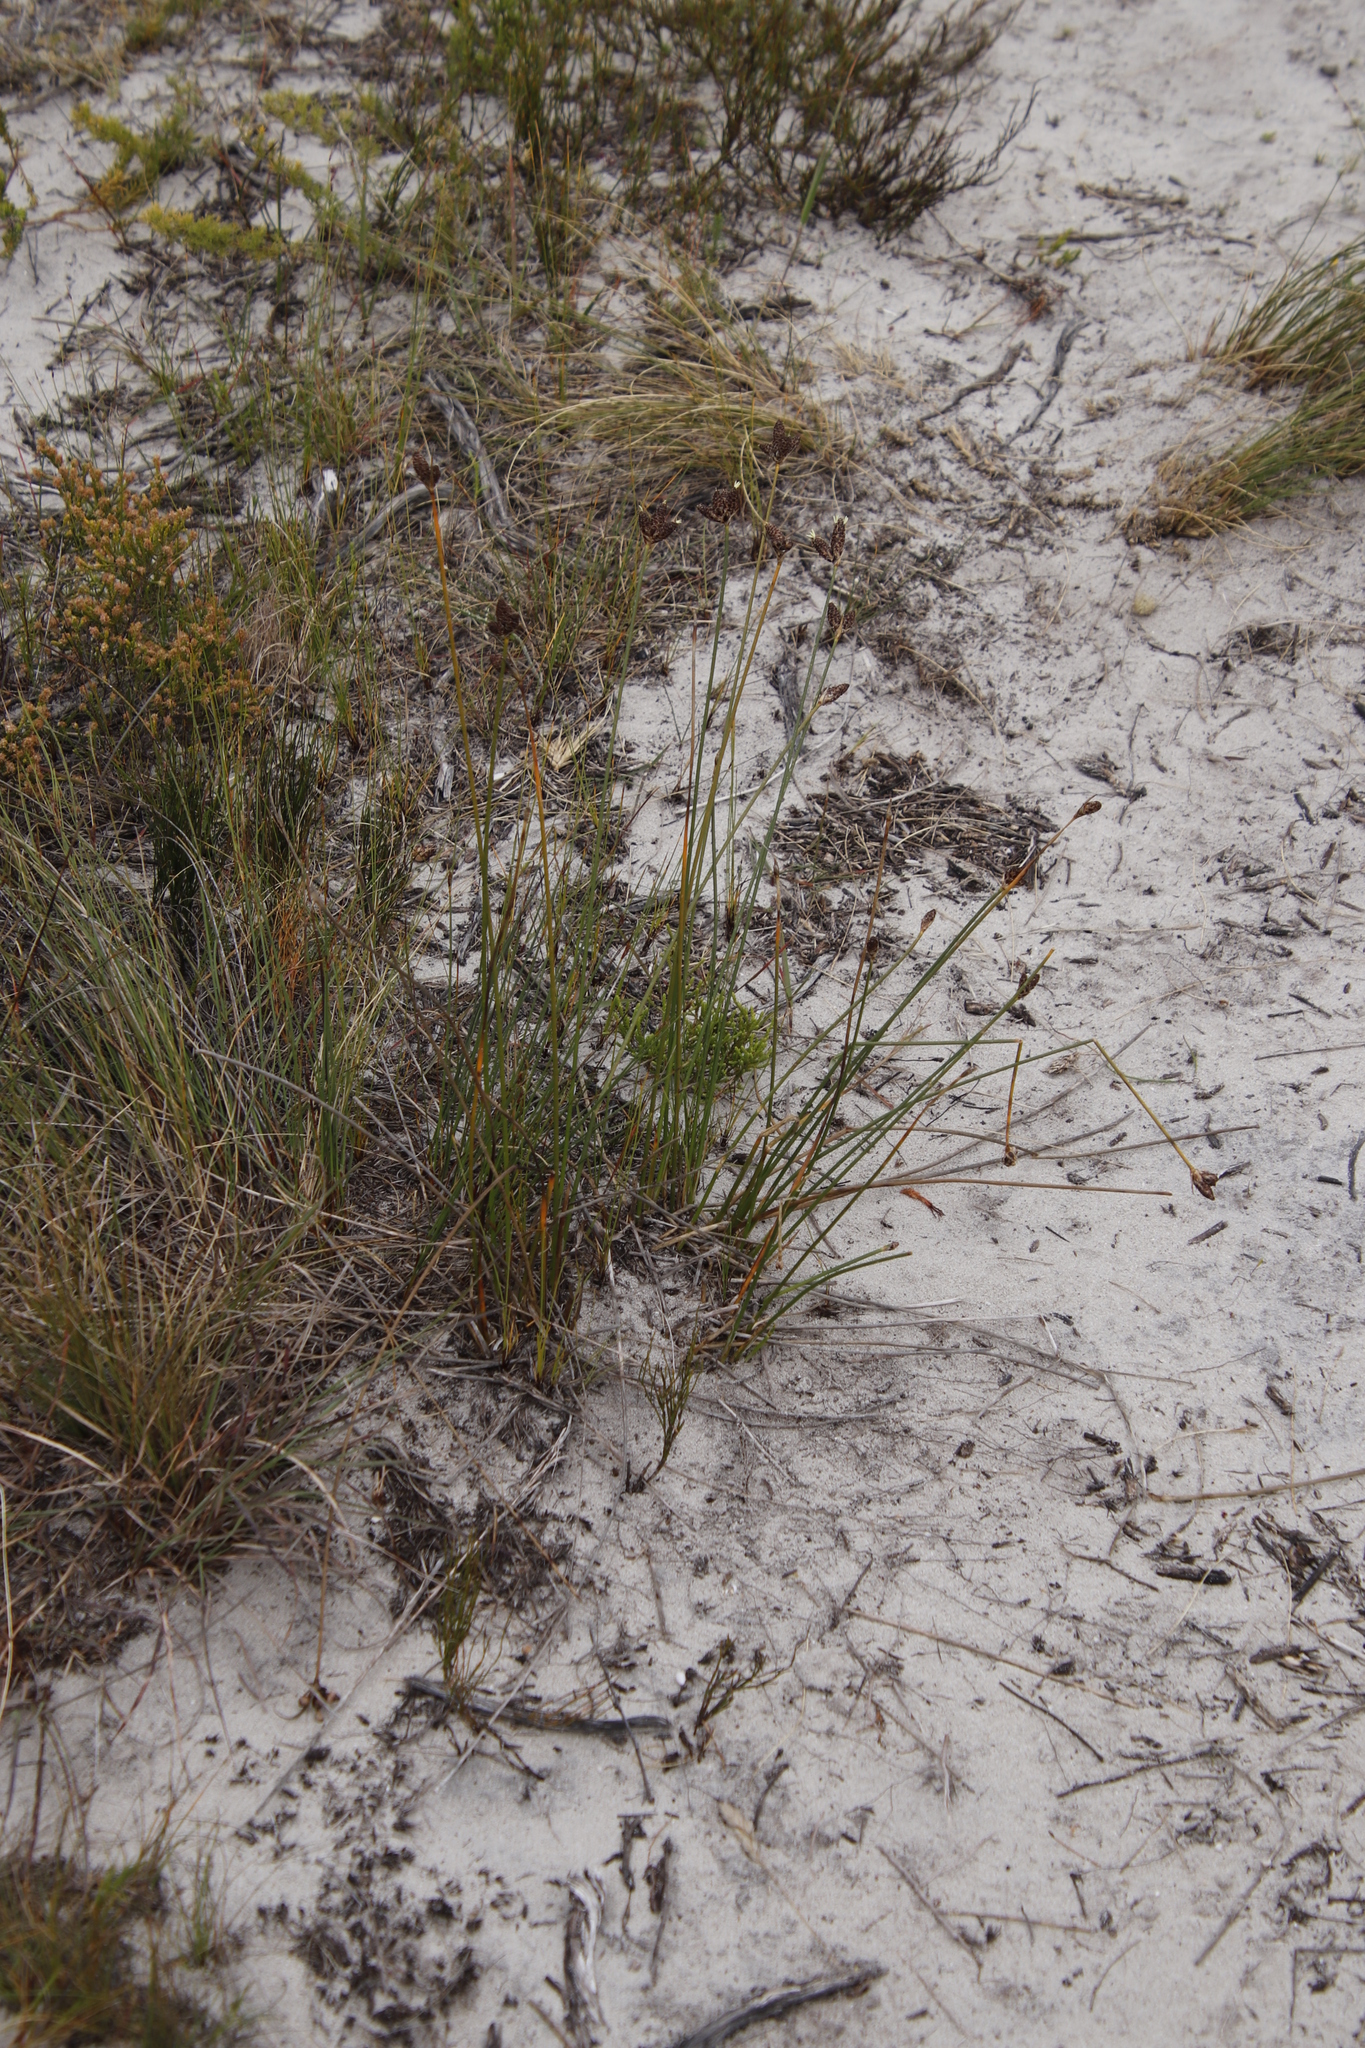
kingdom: Plantae
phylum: Tracheophyta
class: Liliopsida
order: Poales
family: Cyperaceae
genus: Hellmuthia
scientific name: Hellmuthia membranacea
